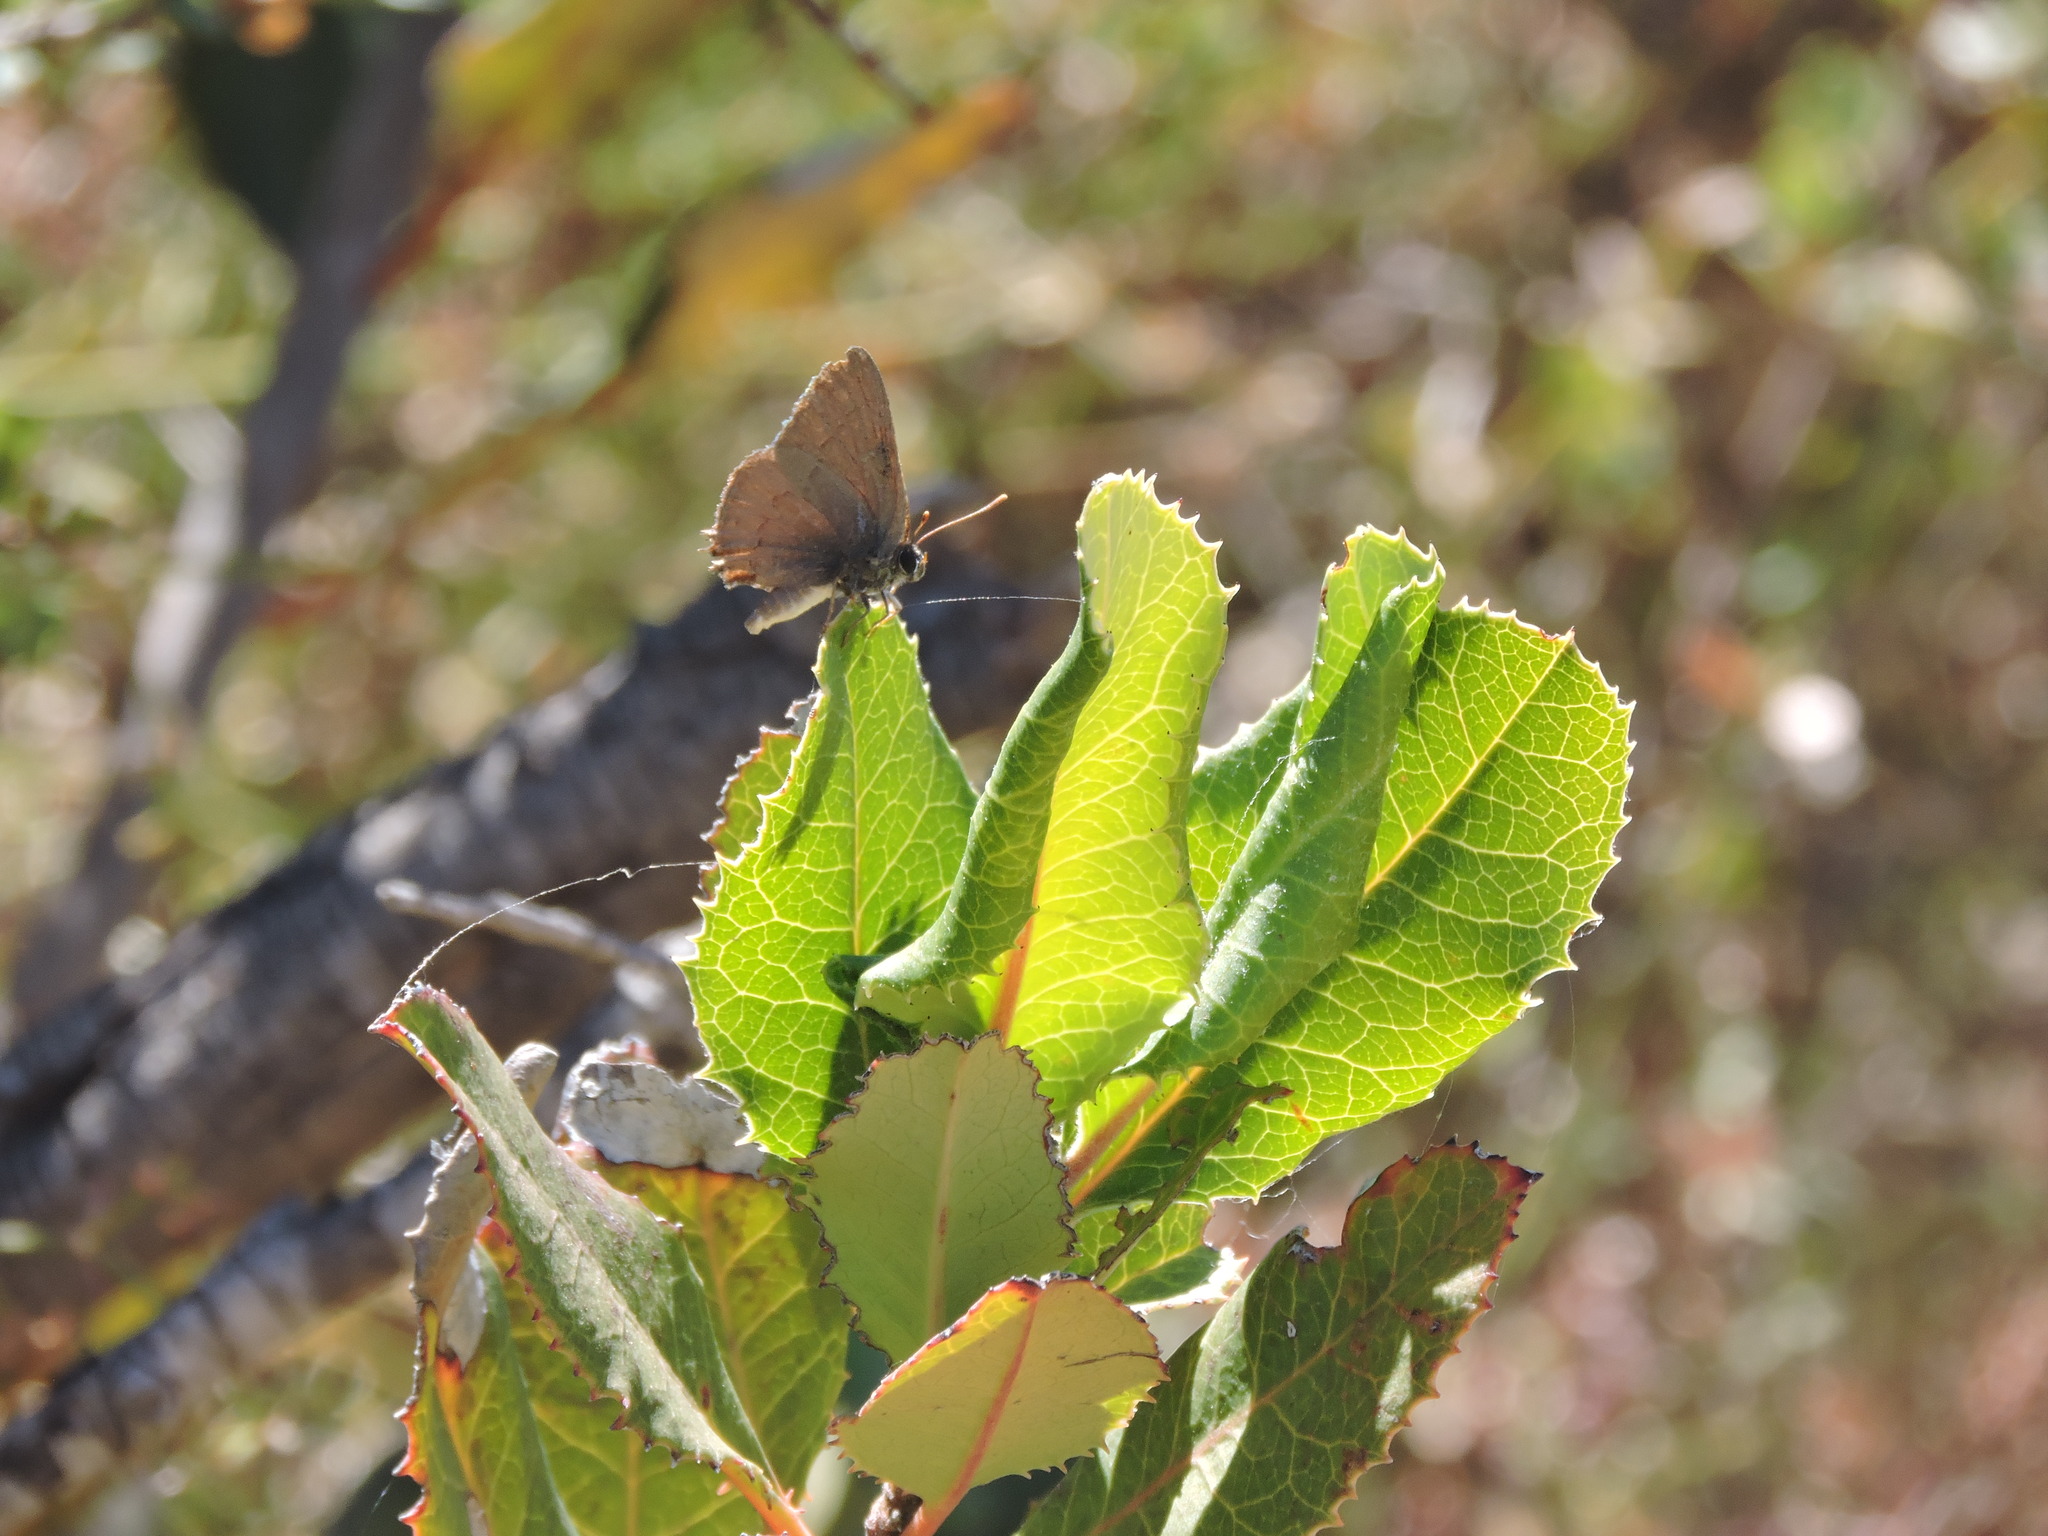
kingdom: Animalia
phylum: Arthropoda
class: Insecta
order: Lepidoptera
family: Lycaenidae
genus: Strymon
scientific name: Strymon saepium
